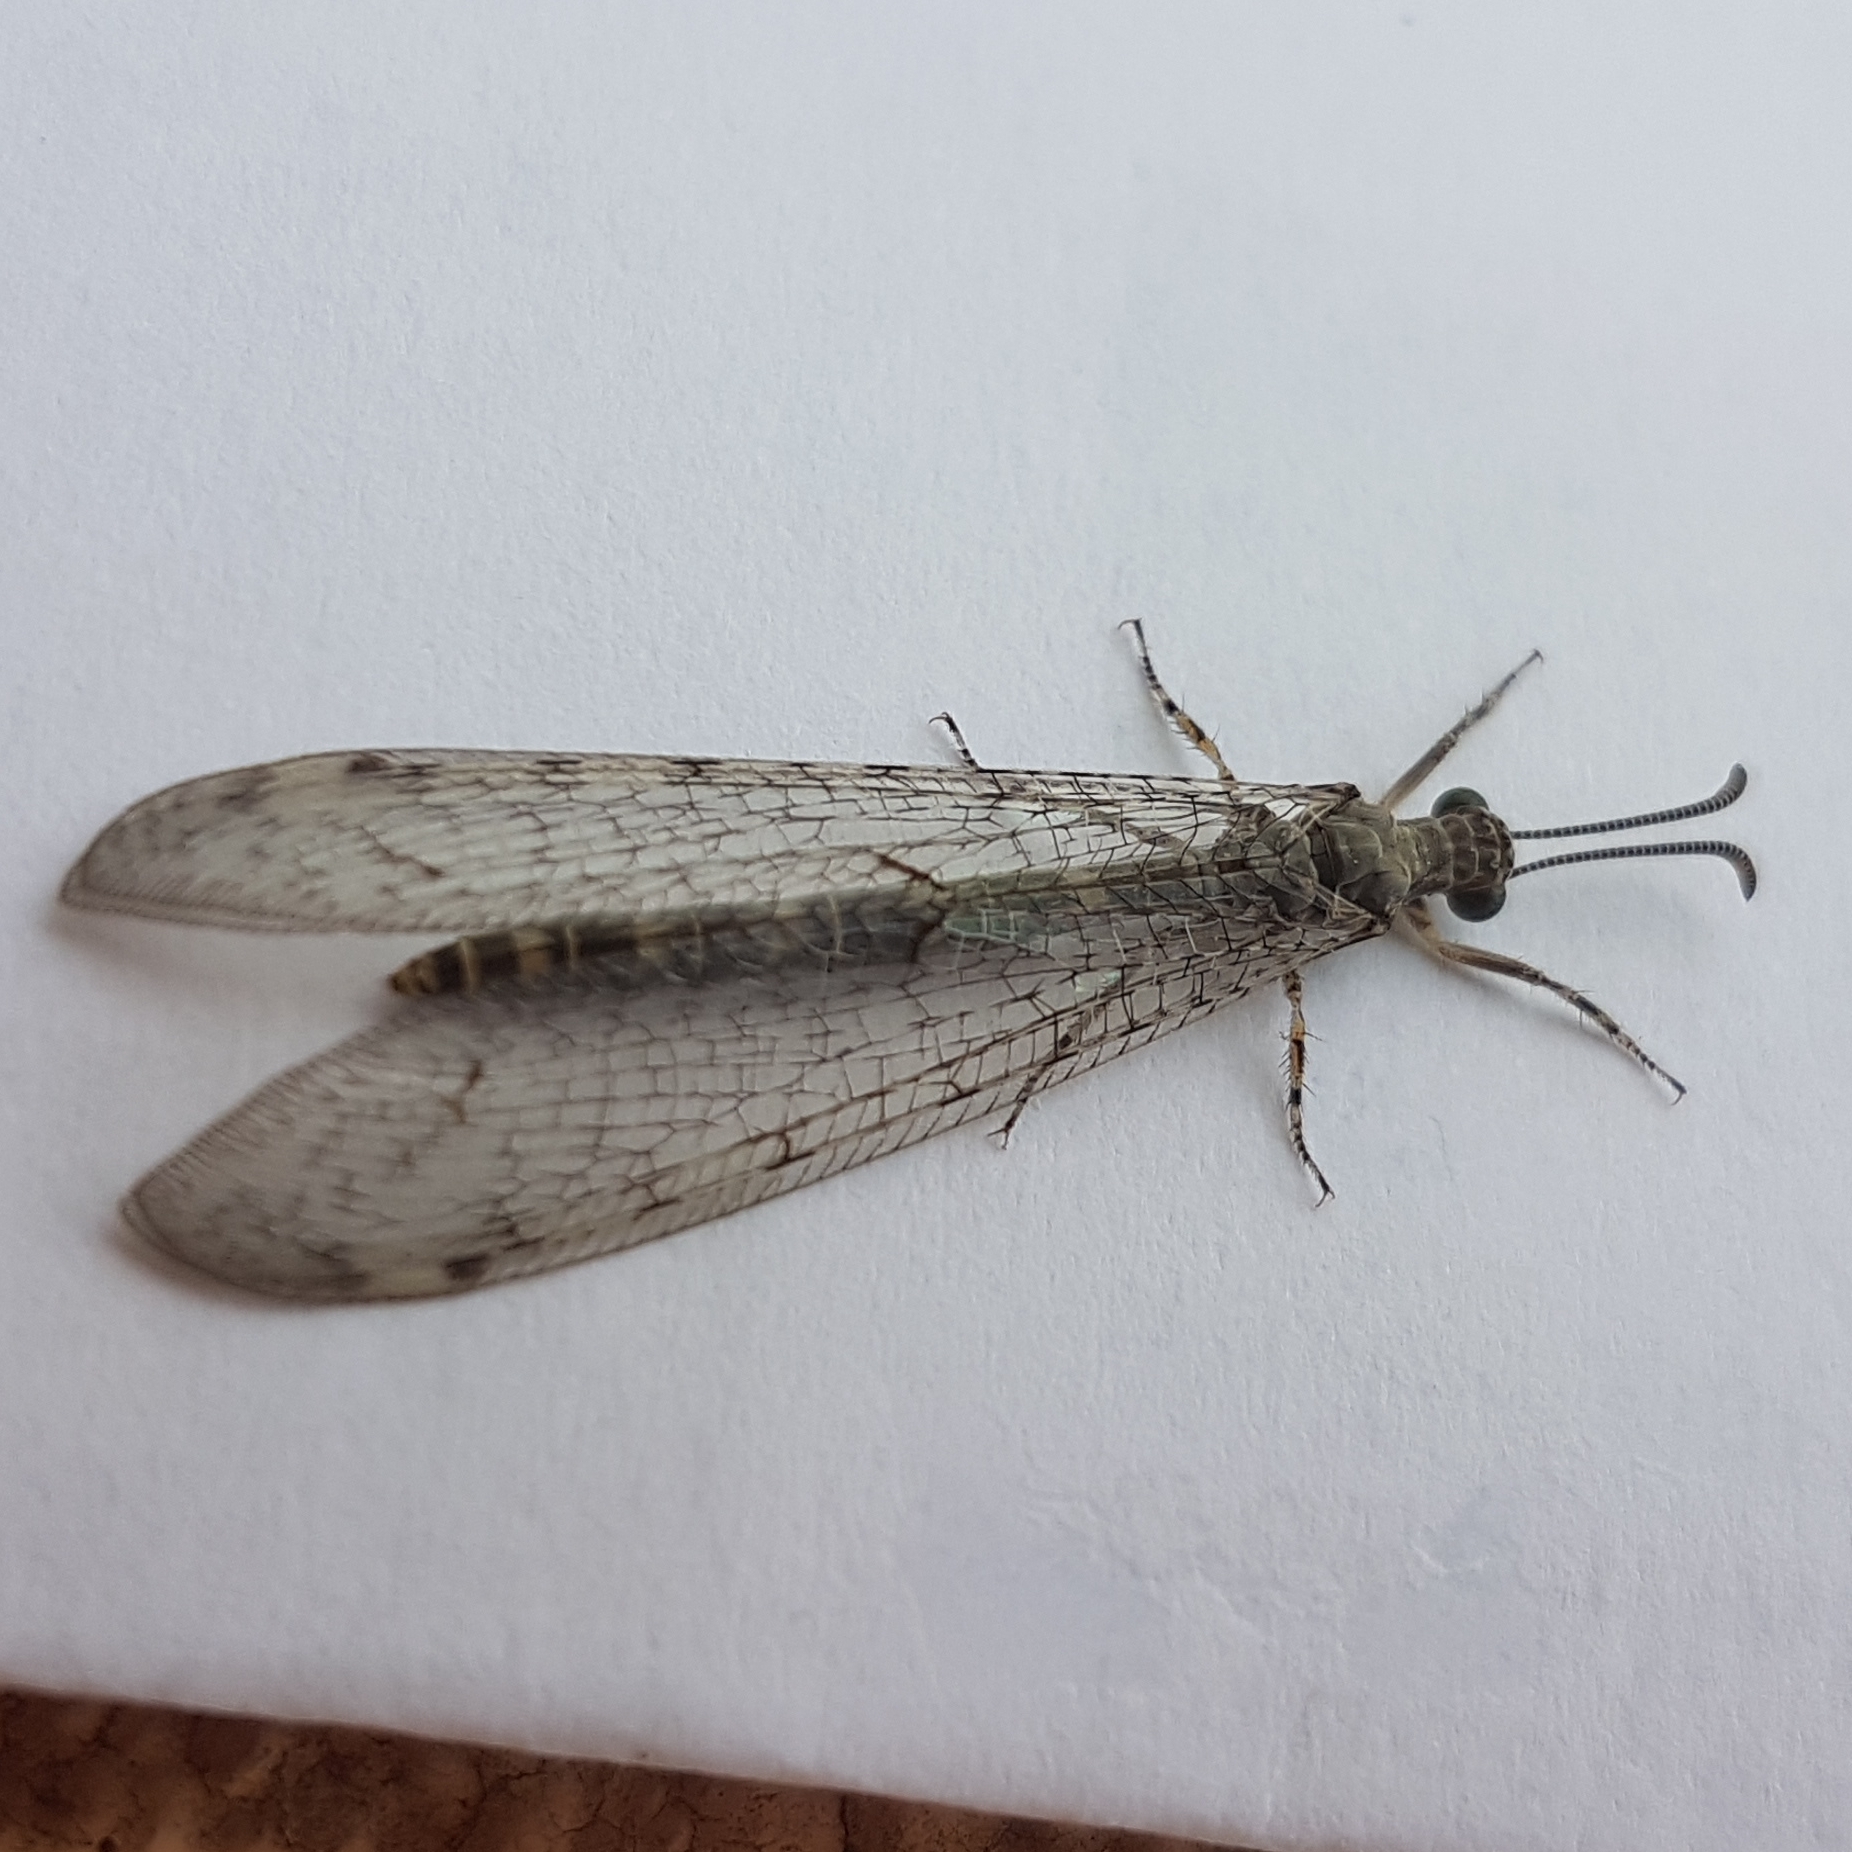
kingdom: Animalia
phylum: Arthropoda
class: Insecta
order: Neuroptera
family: Myrmeleontidae
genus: Neuroleon
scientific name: Neuroleon egenus
